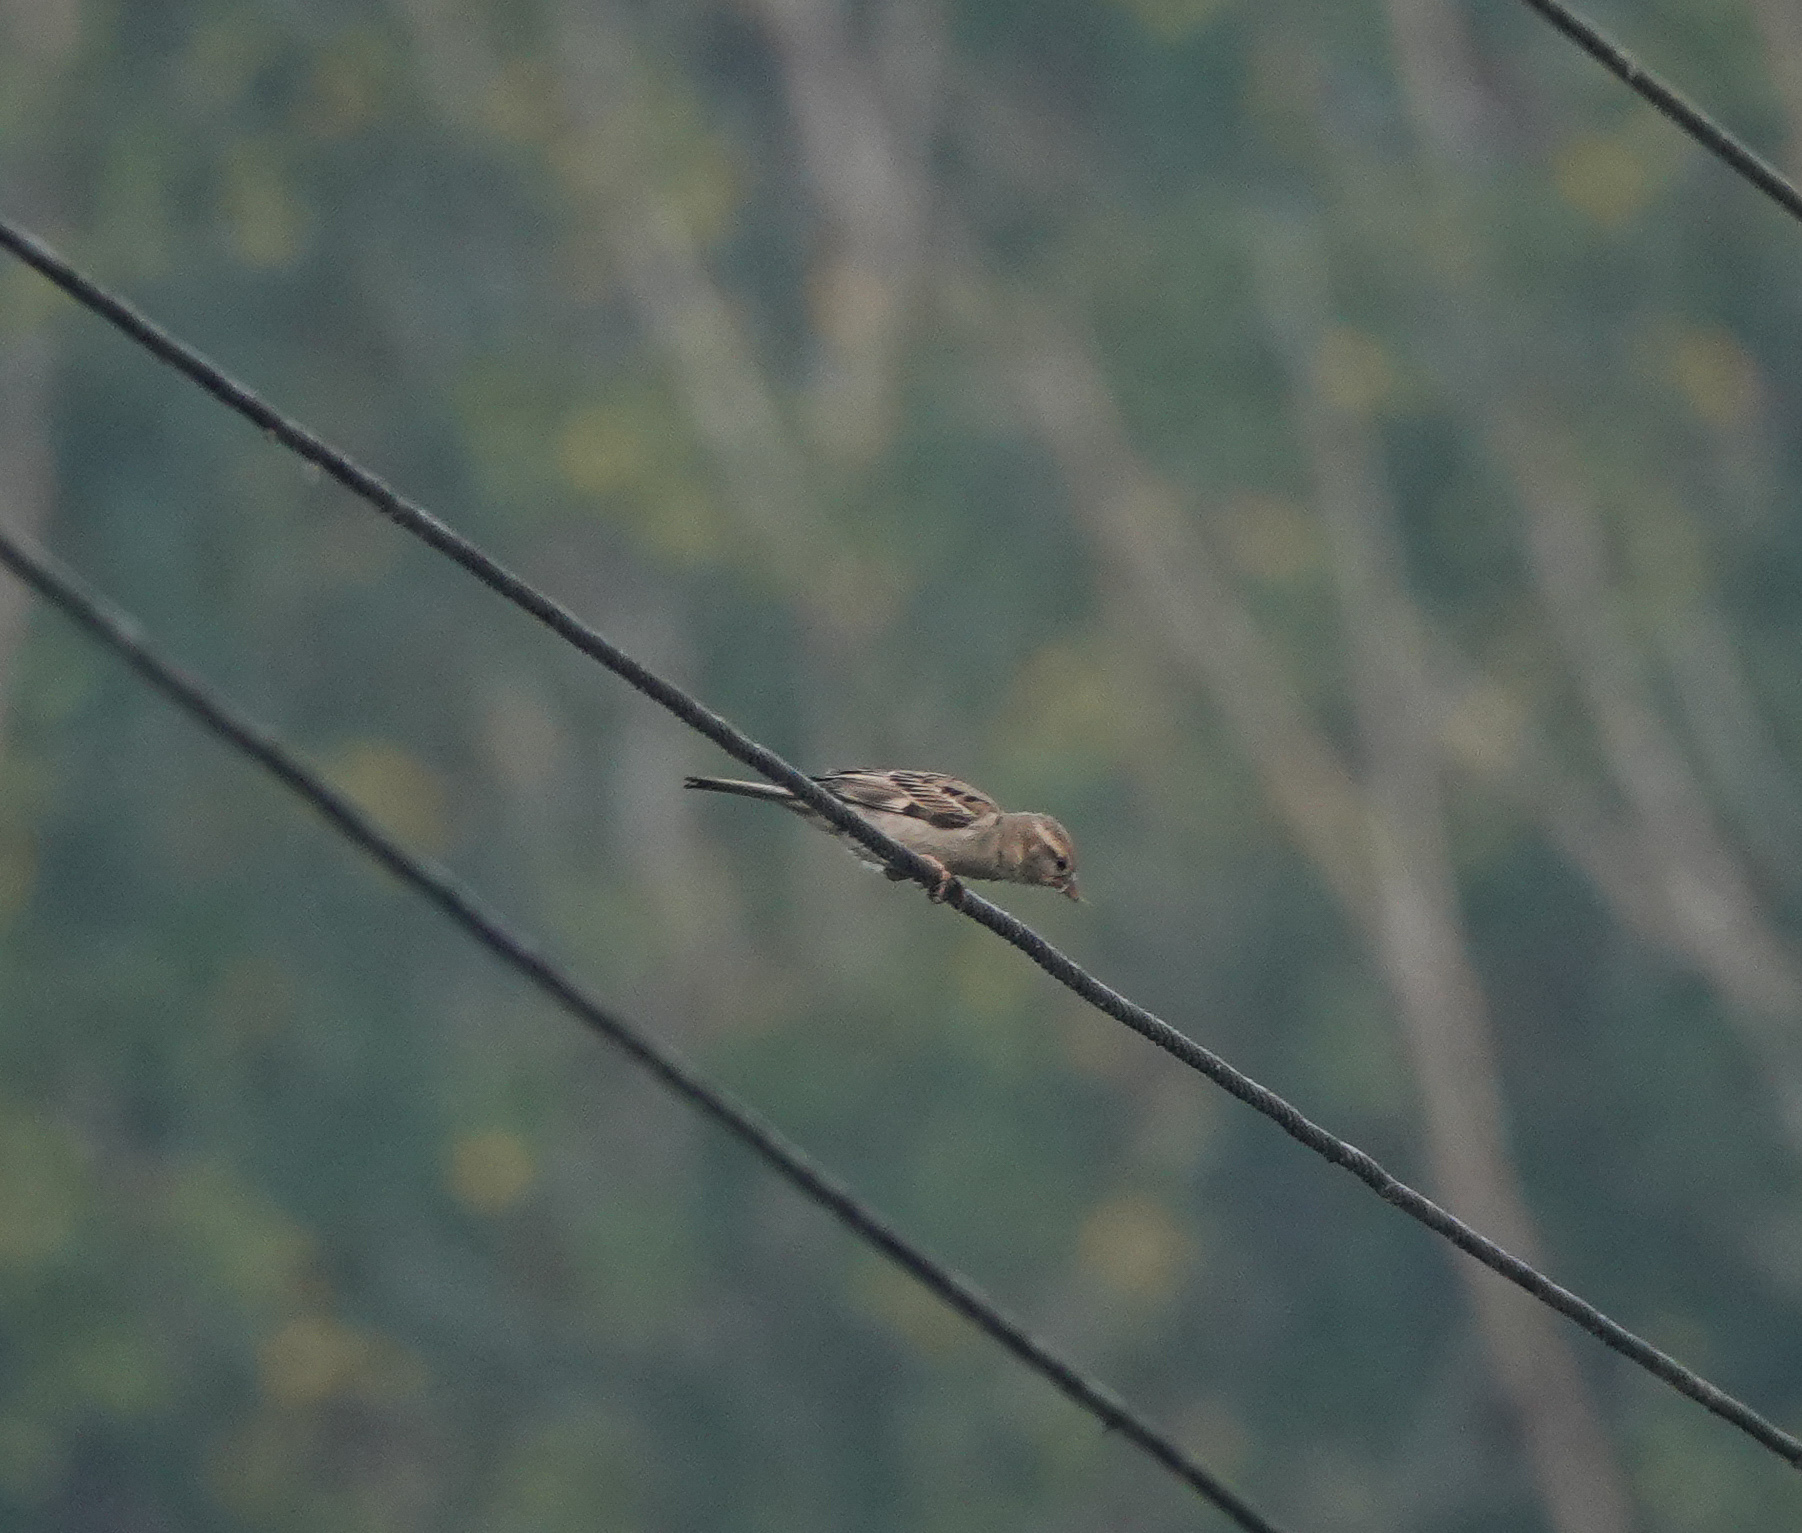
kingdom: Animalia
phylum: Chordata
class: Aves
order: Passeriformes
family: Passeridae
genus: Passer
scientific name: Passer domesticus
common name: House sparrow
